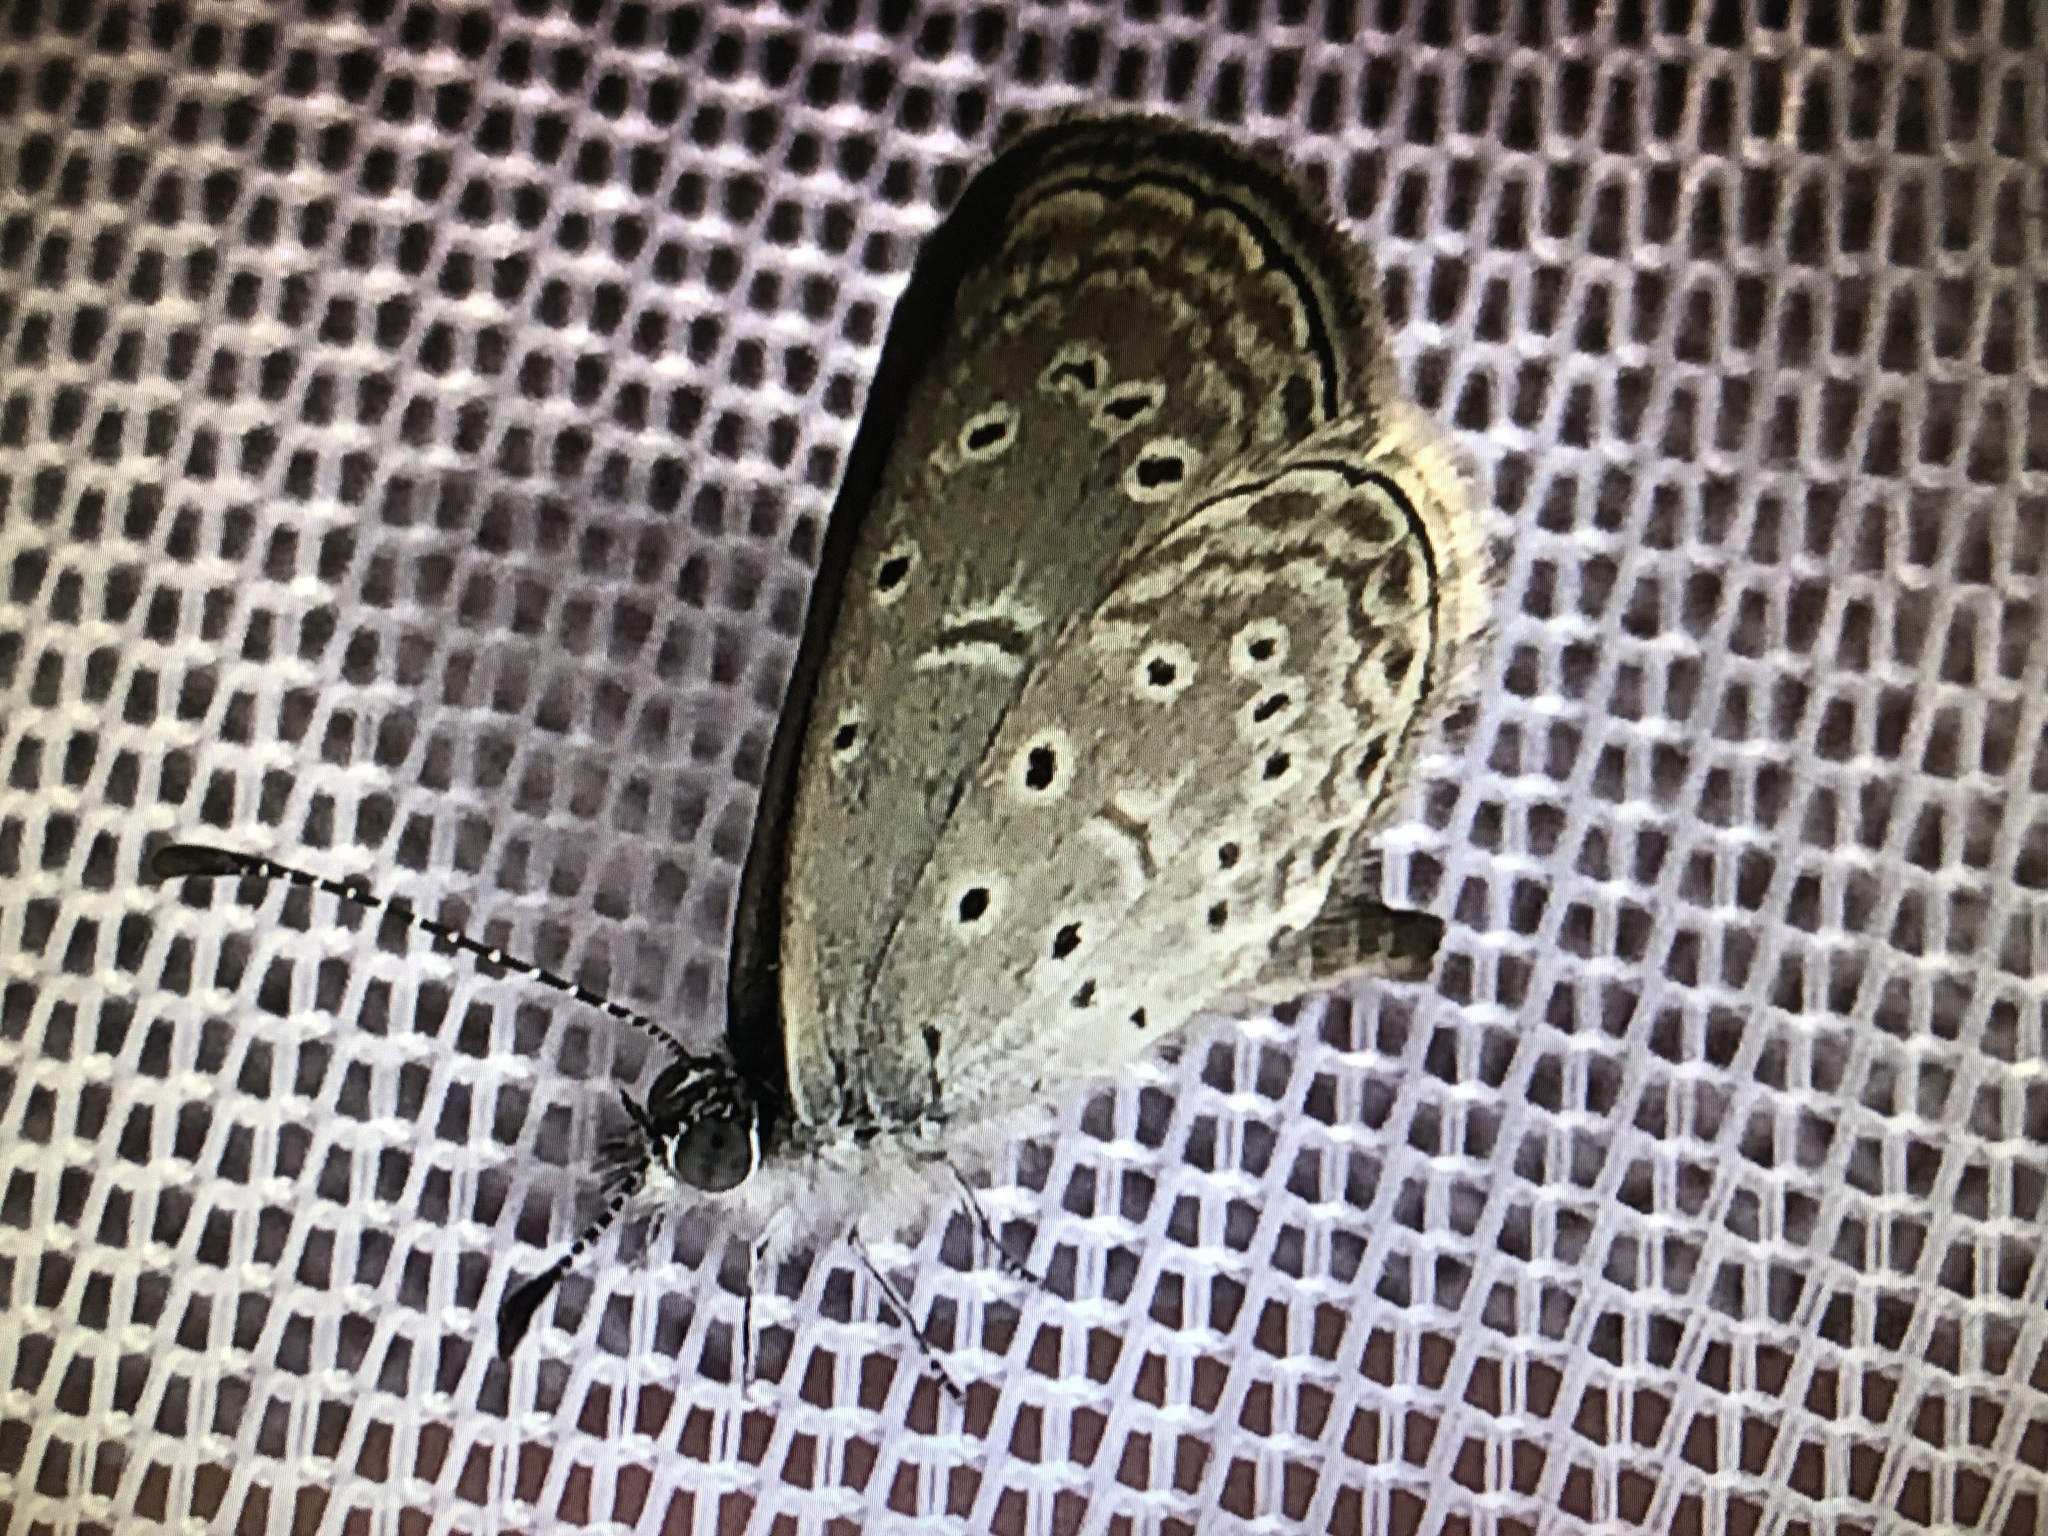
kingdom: Animalia
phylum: Arthropoda
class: Insecta
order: Lepidoptera
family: Lycaenidae
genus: Zizula
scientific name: Zizula hylax
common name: Gaika blue
